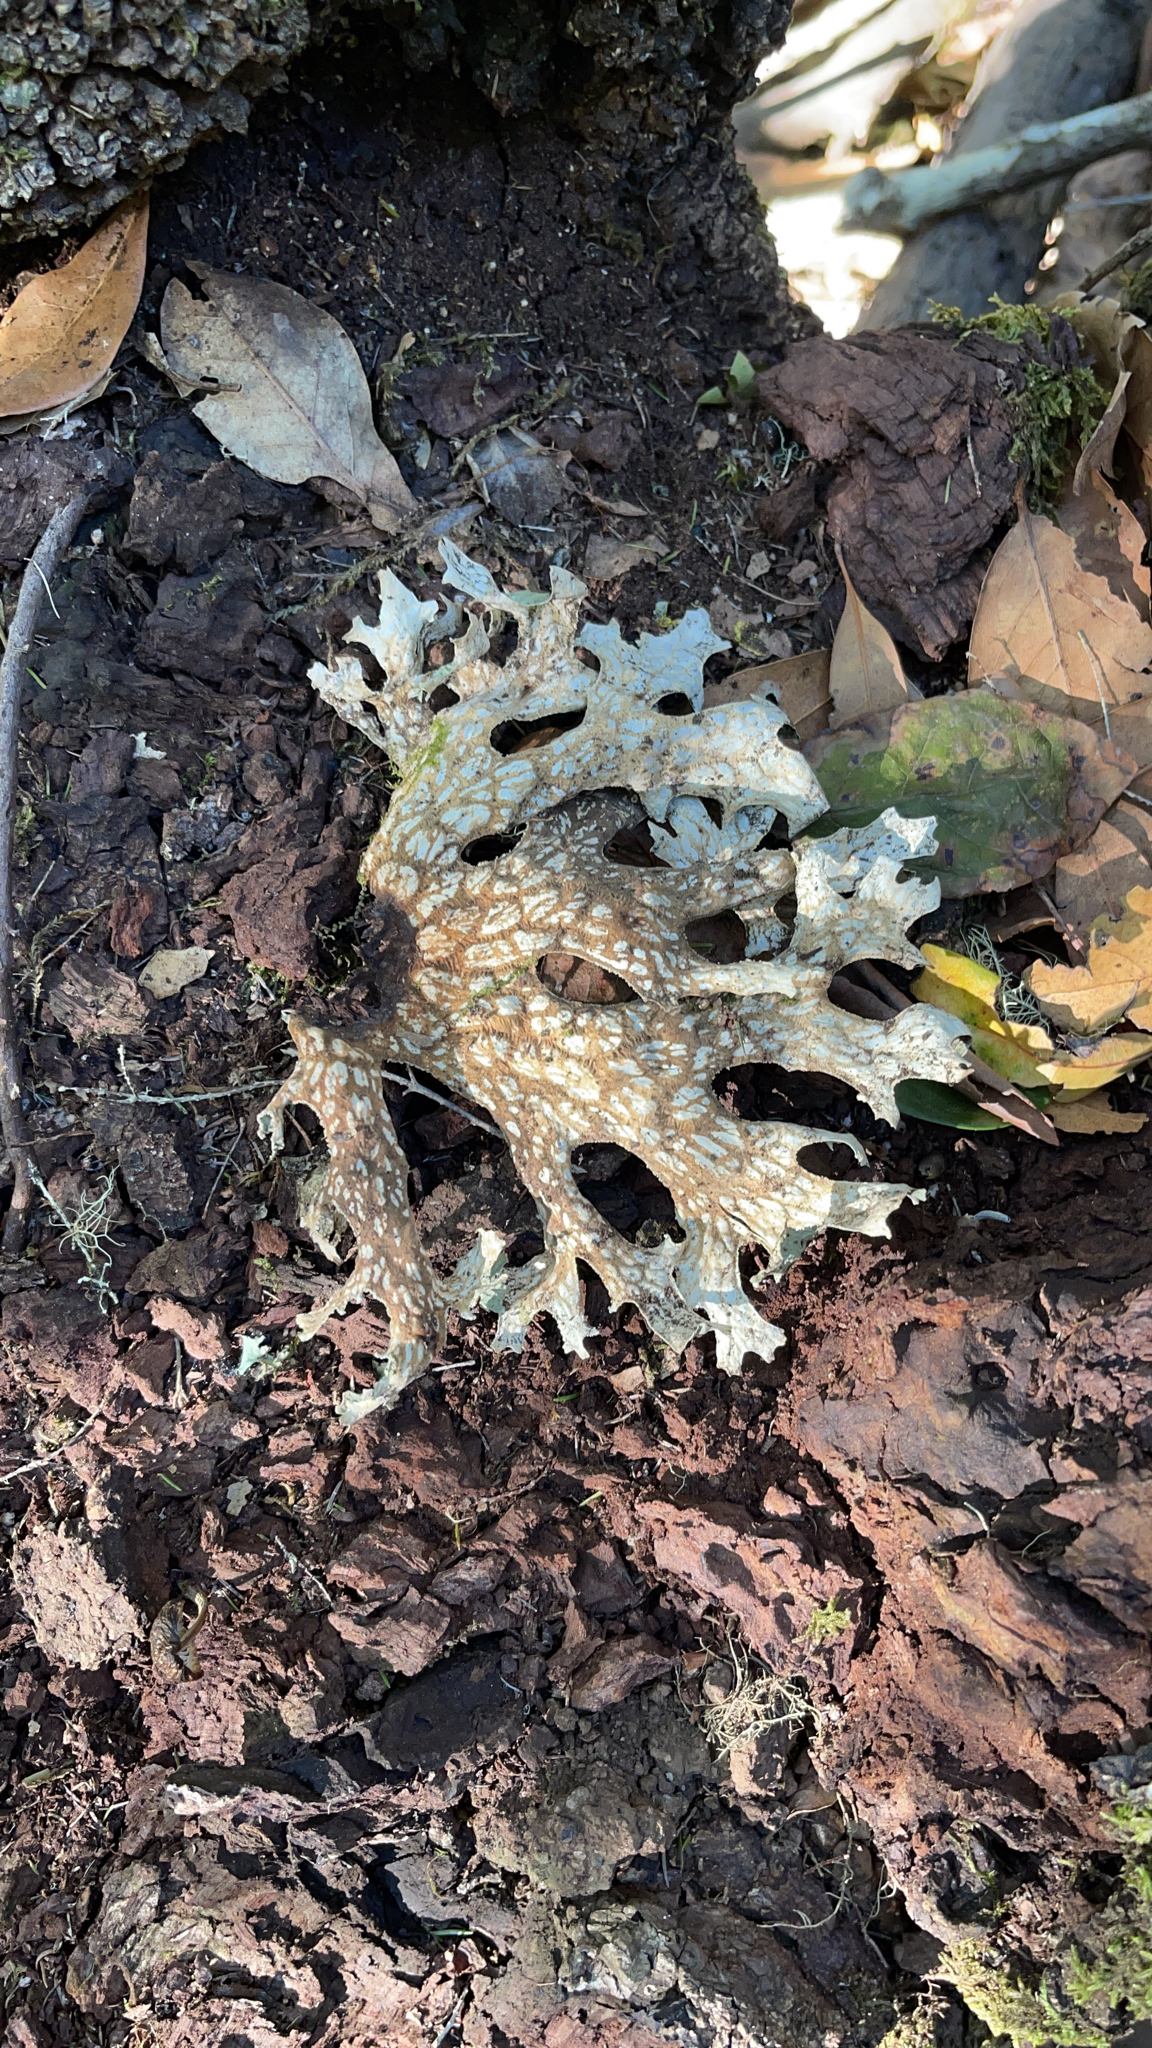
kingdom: Fungi
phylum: Ascomycota
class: Lecanoromycetes
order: Peltigerales
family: Lobariaceae
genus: Lobaria
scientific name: Lobaria pulmonaria
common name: Lungwort
